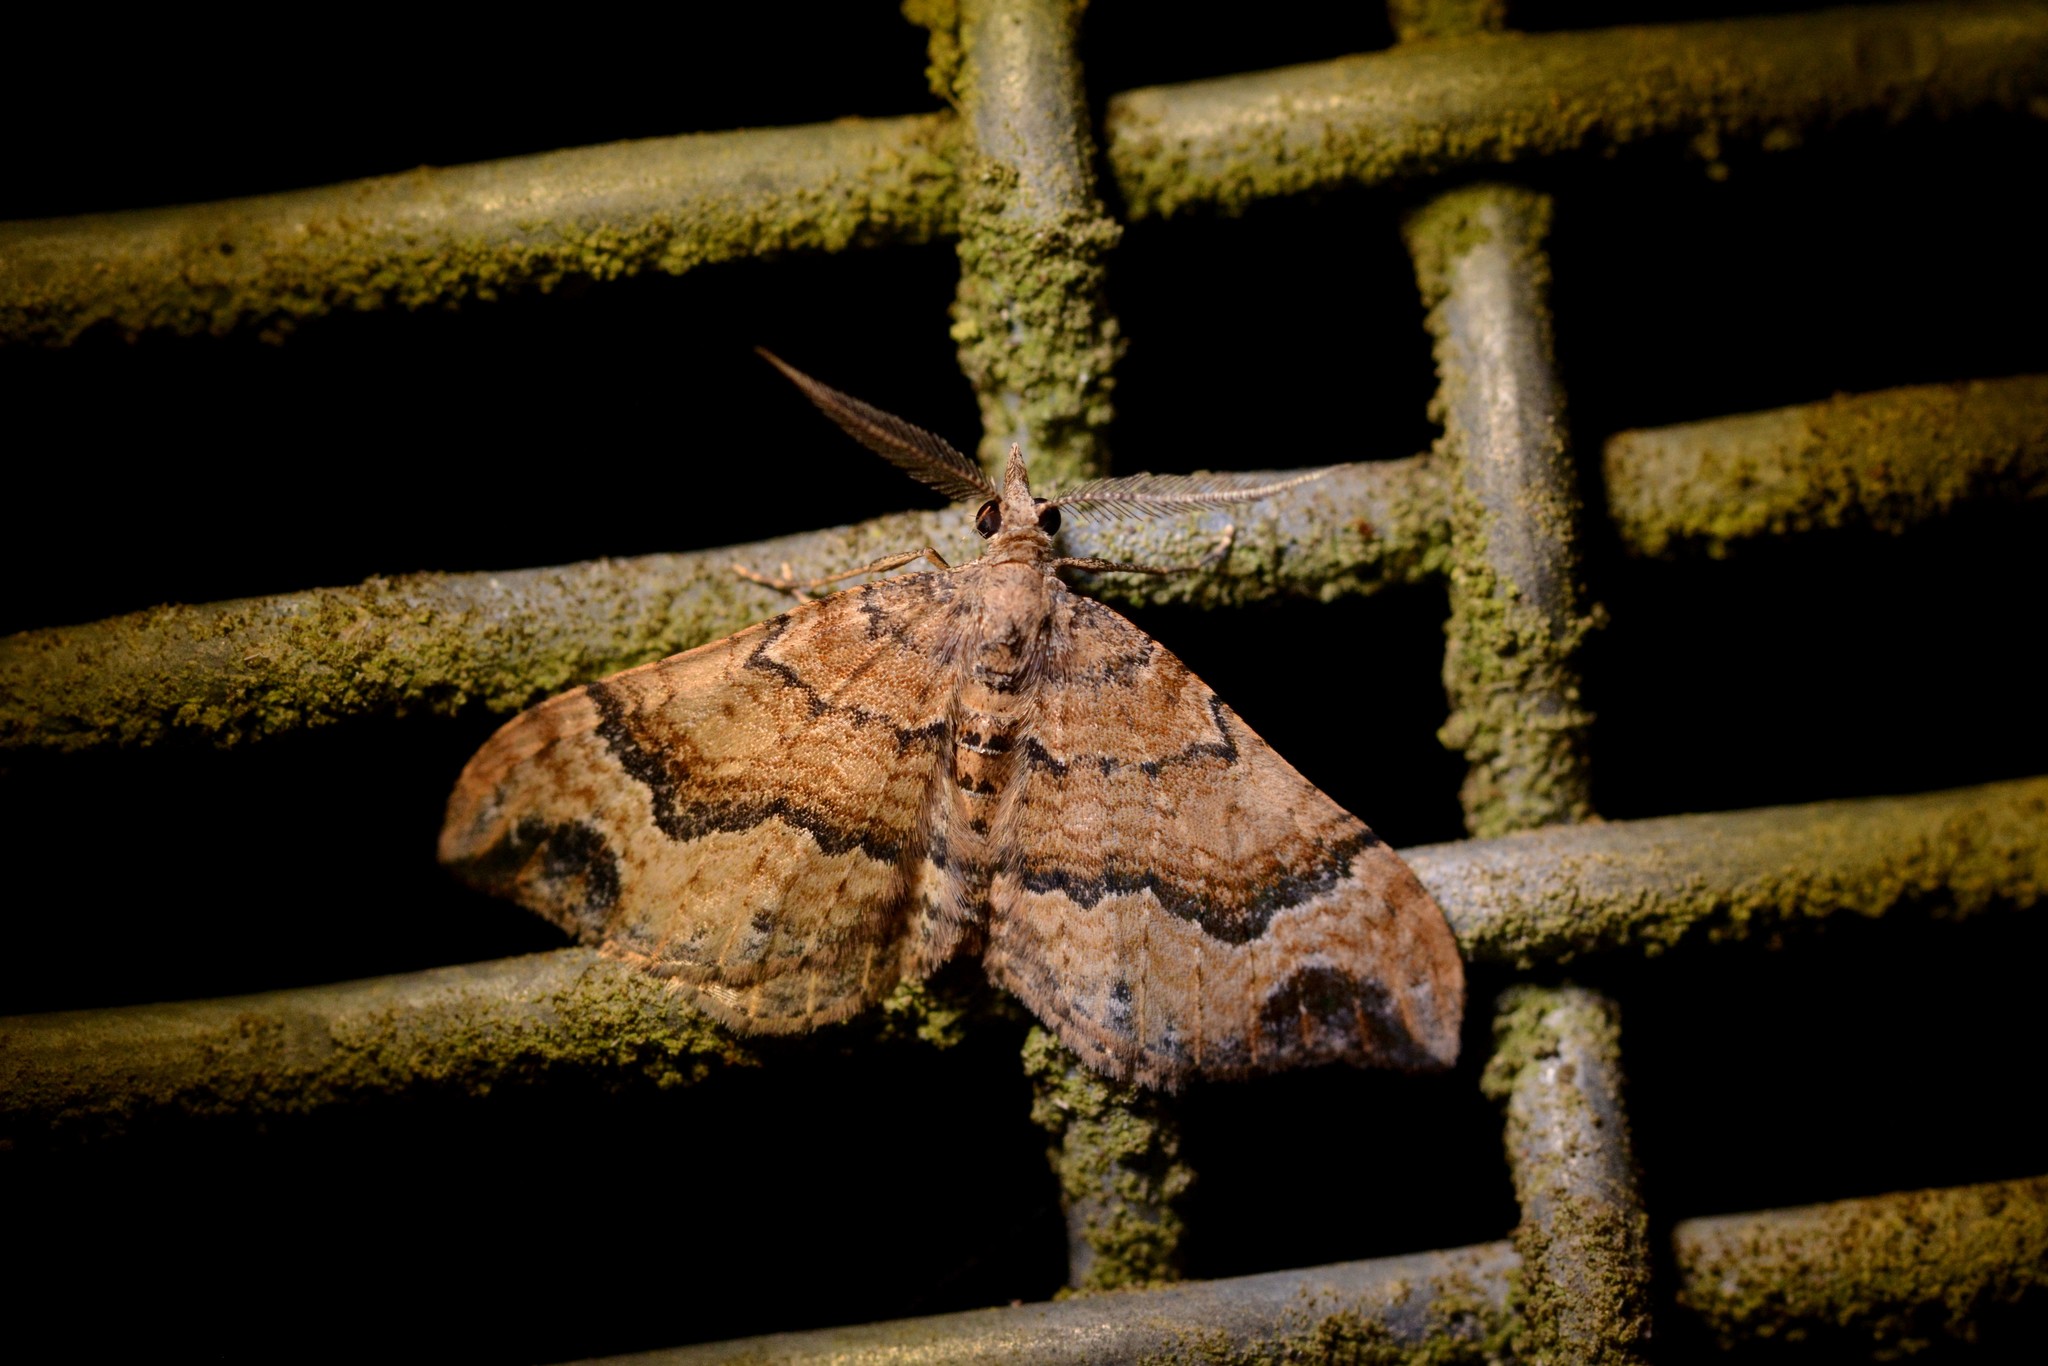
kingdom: Animalia
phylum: Arthropoda
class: Insecta
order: Lepidoptera
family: Geometridae
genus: Homodotis
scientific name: Homodotis megaspilata
